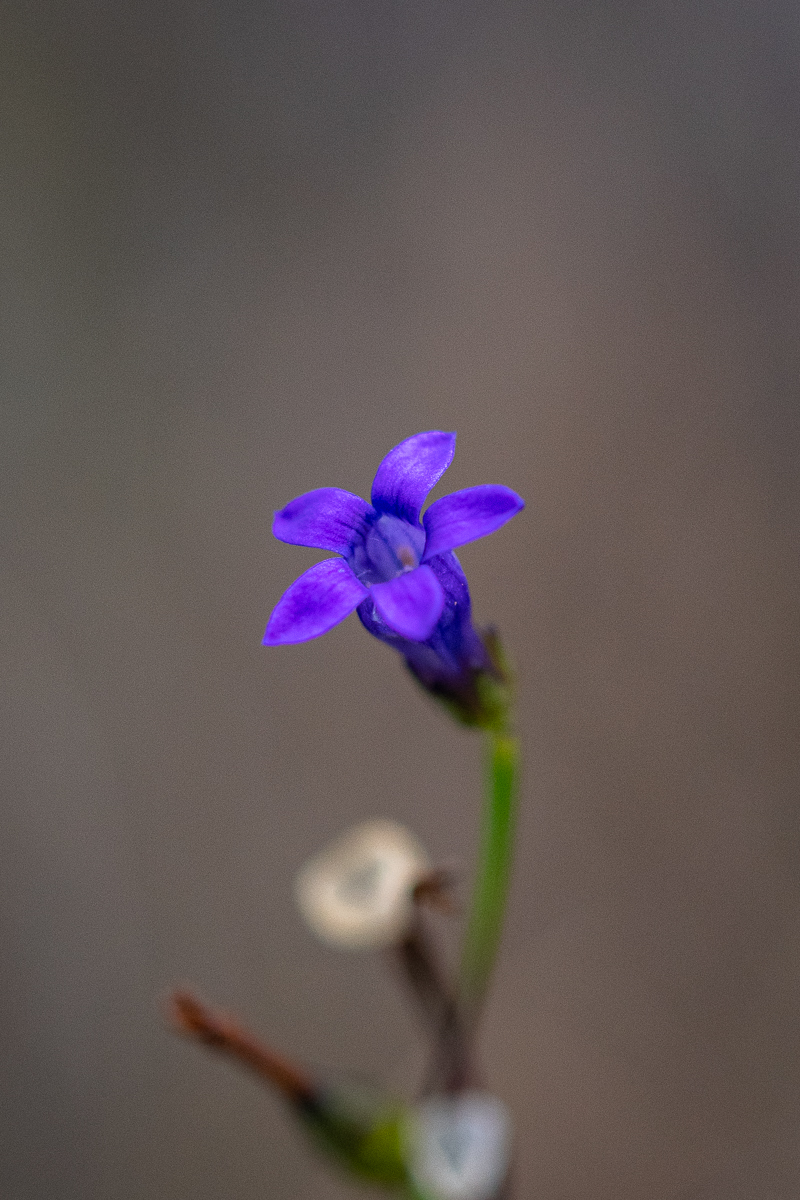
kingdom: Plantae
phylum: Tracheophyta
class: Magnoliopsida
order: Asterales
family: Campanulaceae
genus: Siphocodon
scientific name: Siphocodon spartioides
